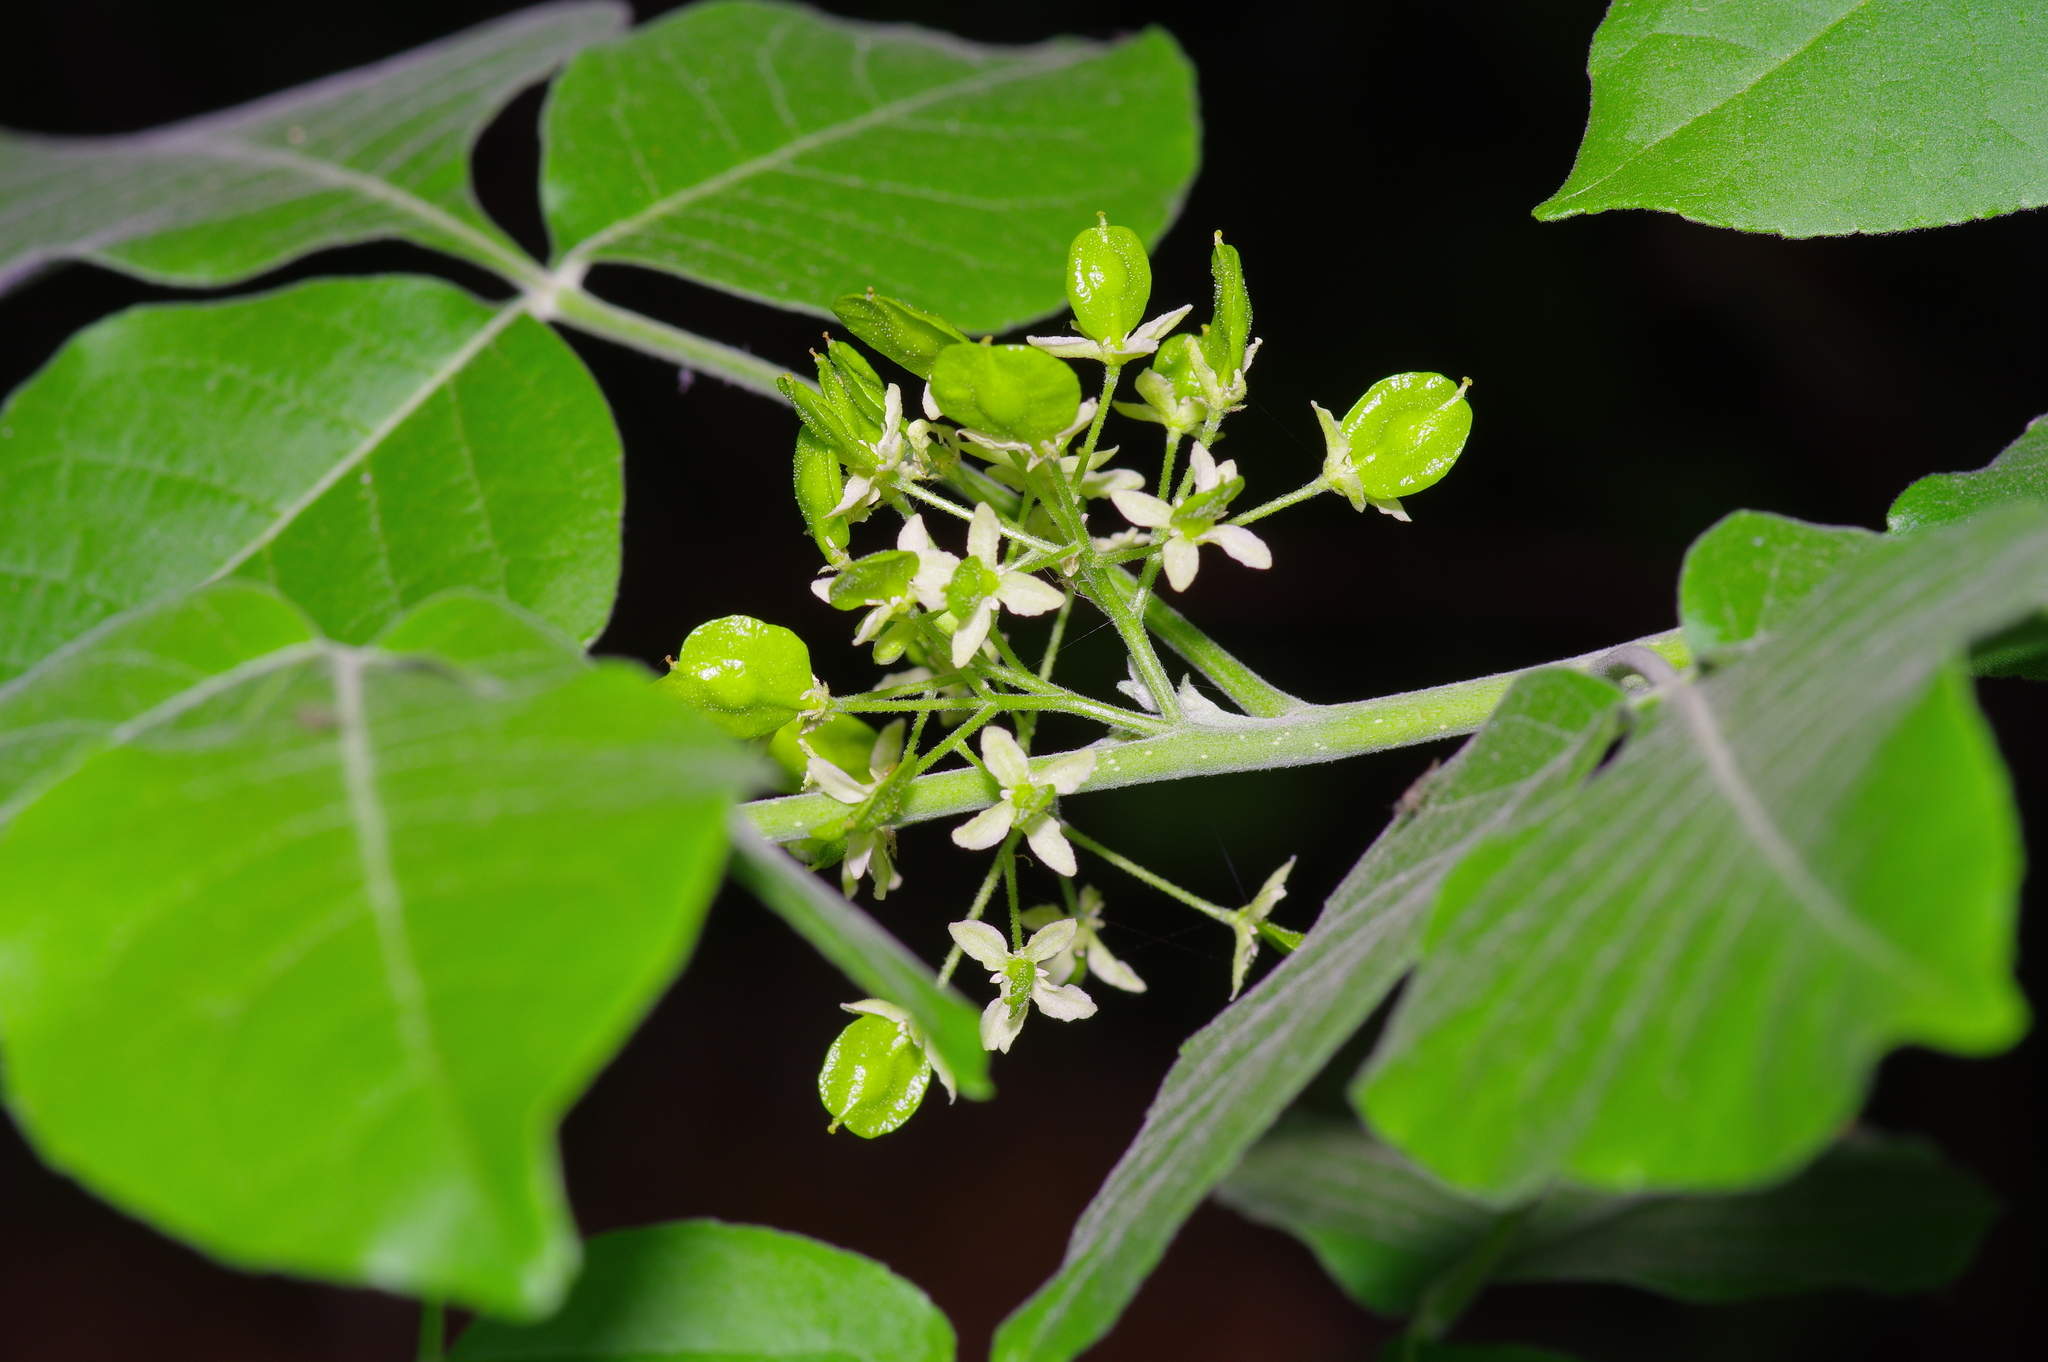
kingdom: Plantae
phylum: Tracheophyta
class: Magnoliopsida
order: Sapindales
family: Rutaceae
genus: Ptelea
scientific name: Ptelea trifoliata
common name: Common hop-tree
